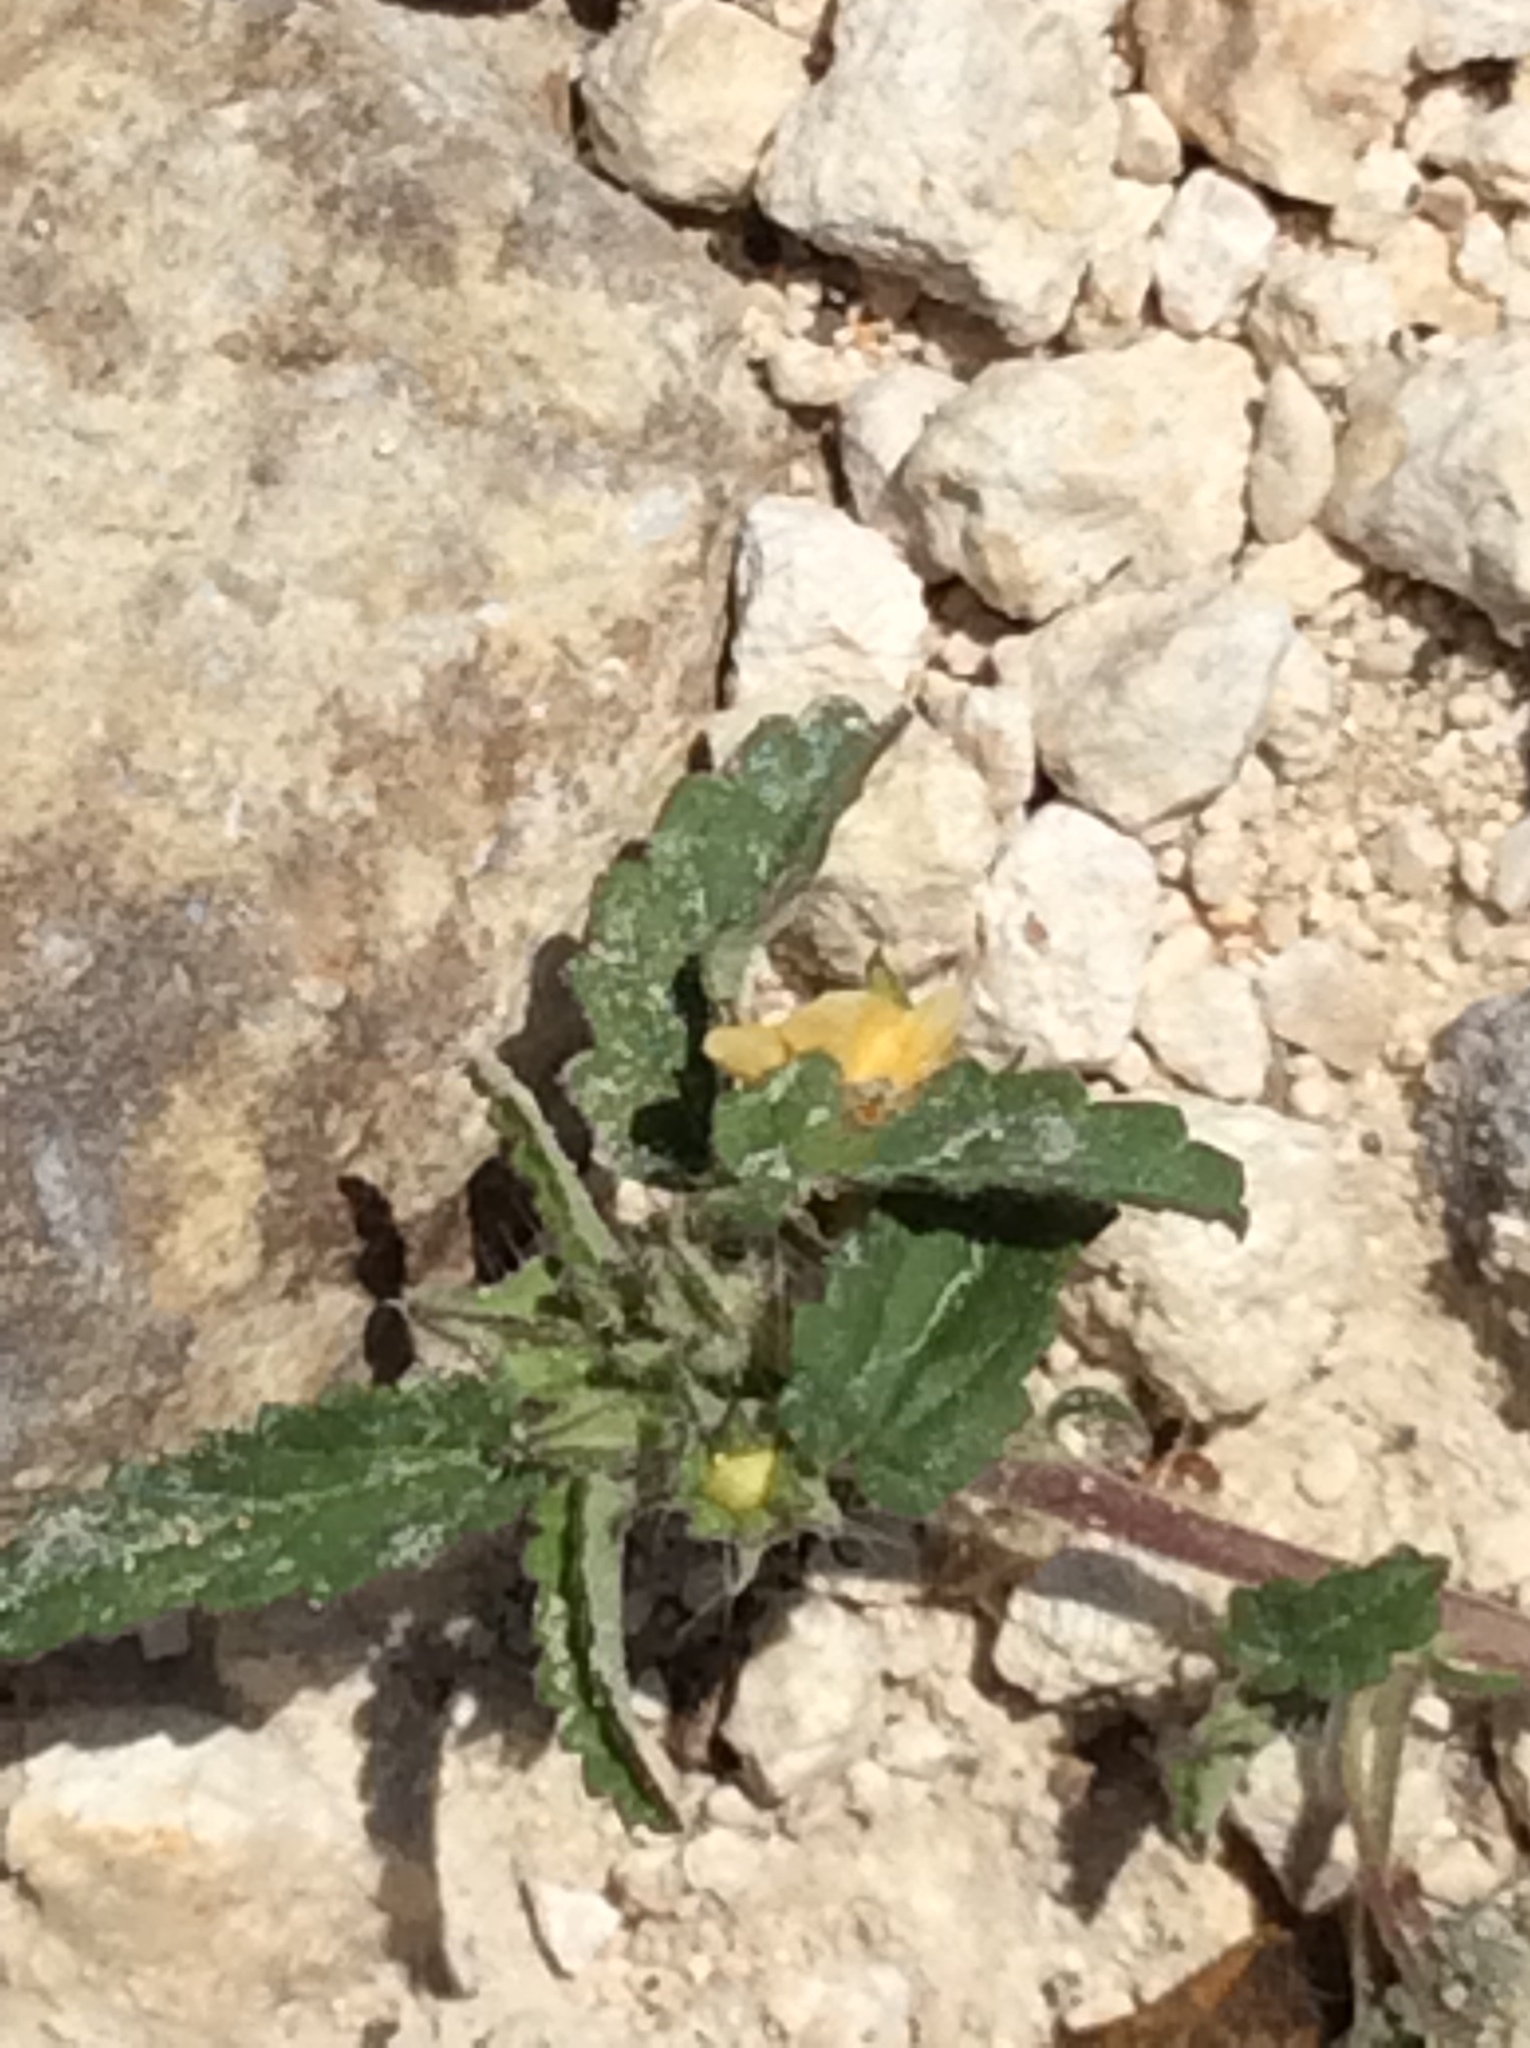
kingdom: Plantae
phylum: Tracheophyta
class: Magnoliopsida
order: Malvales
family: Malvaceae
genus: Sida
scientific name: Sida abutilifolia
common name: Spreading fanpetals
